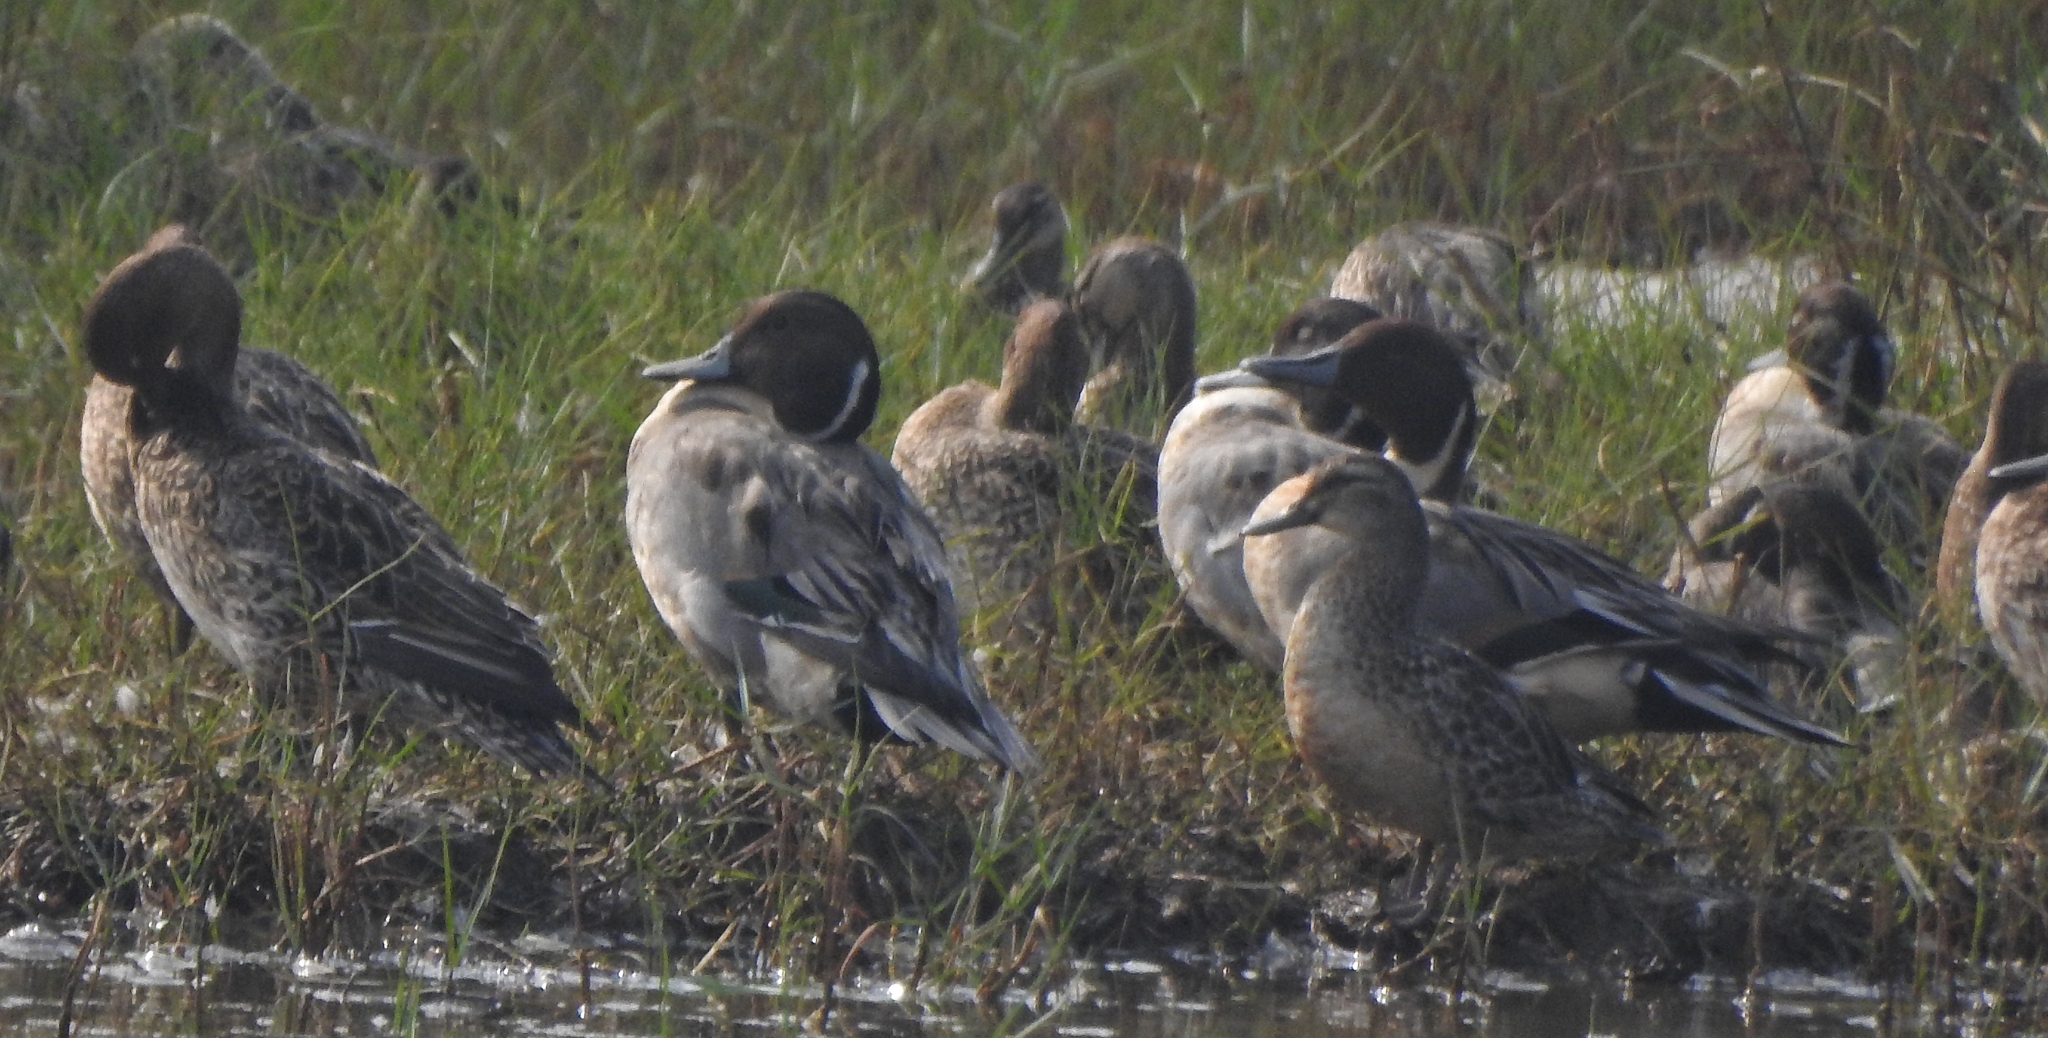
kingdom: Animalia
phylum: Chordata
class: Aves
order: Anseriformes
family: Anatidae
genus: Anas
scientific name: Anas acuta
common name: Northern pintail
